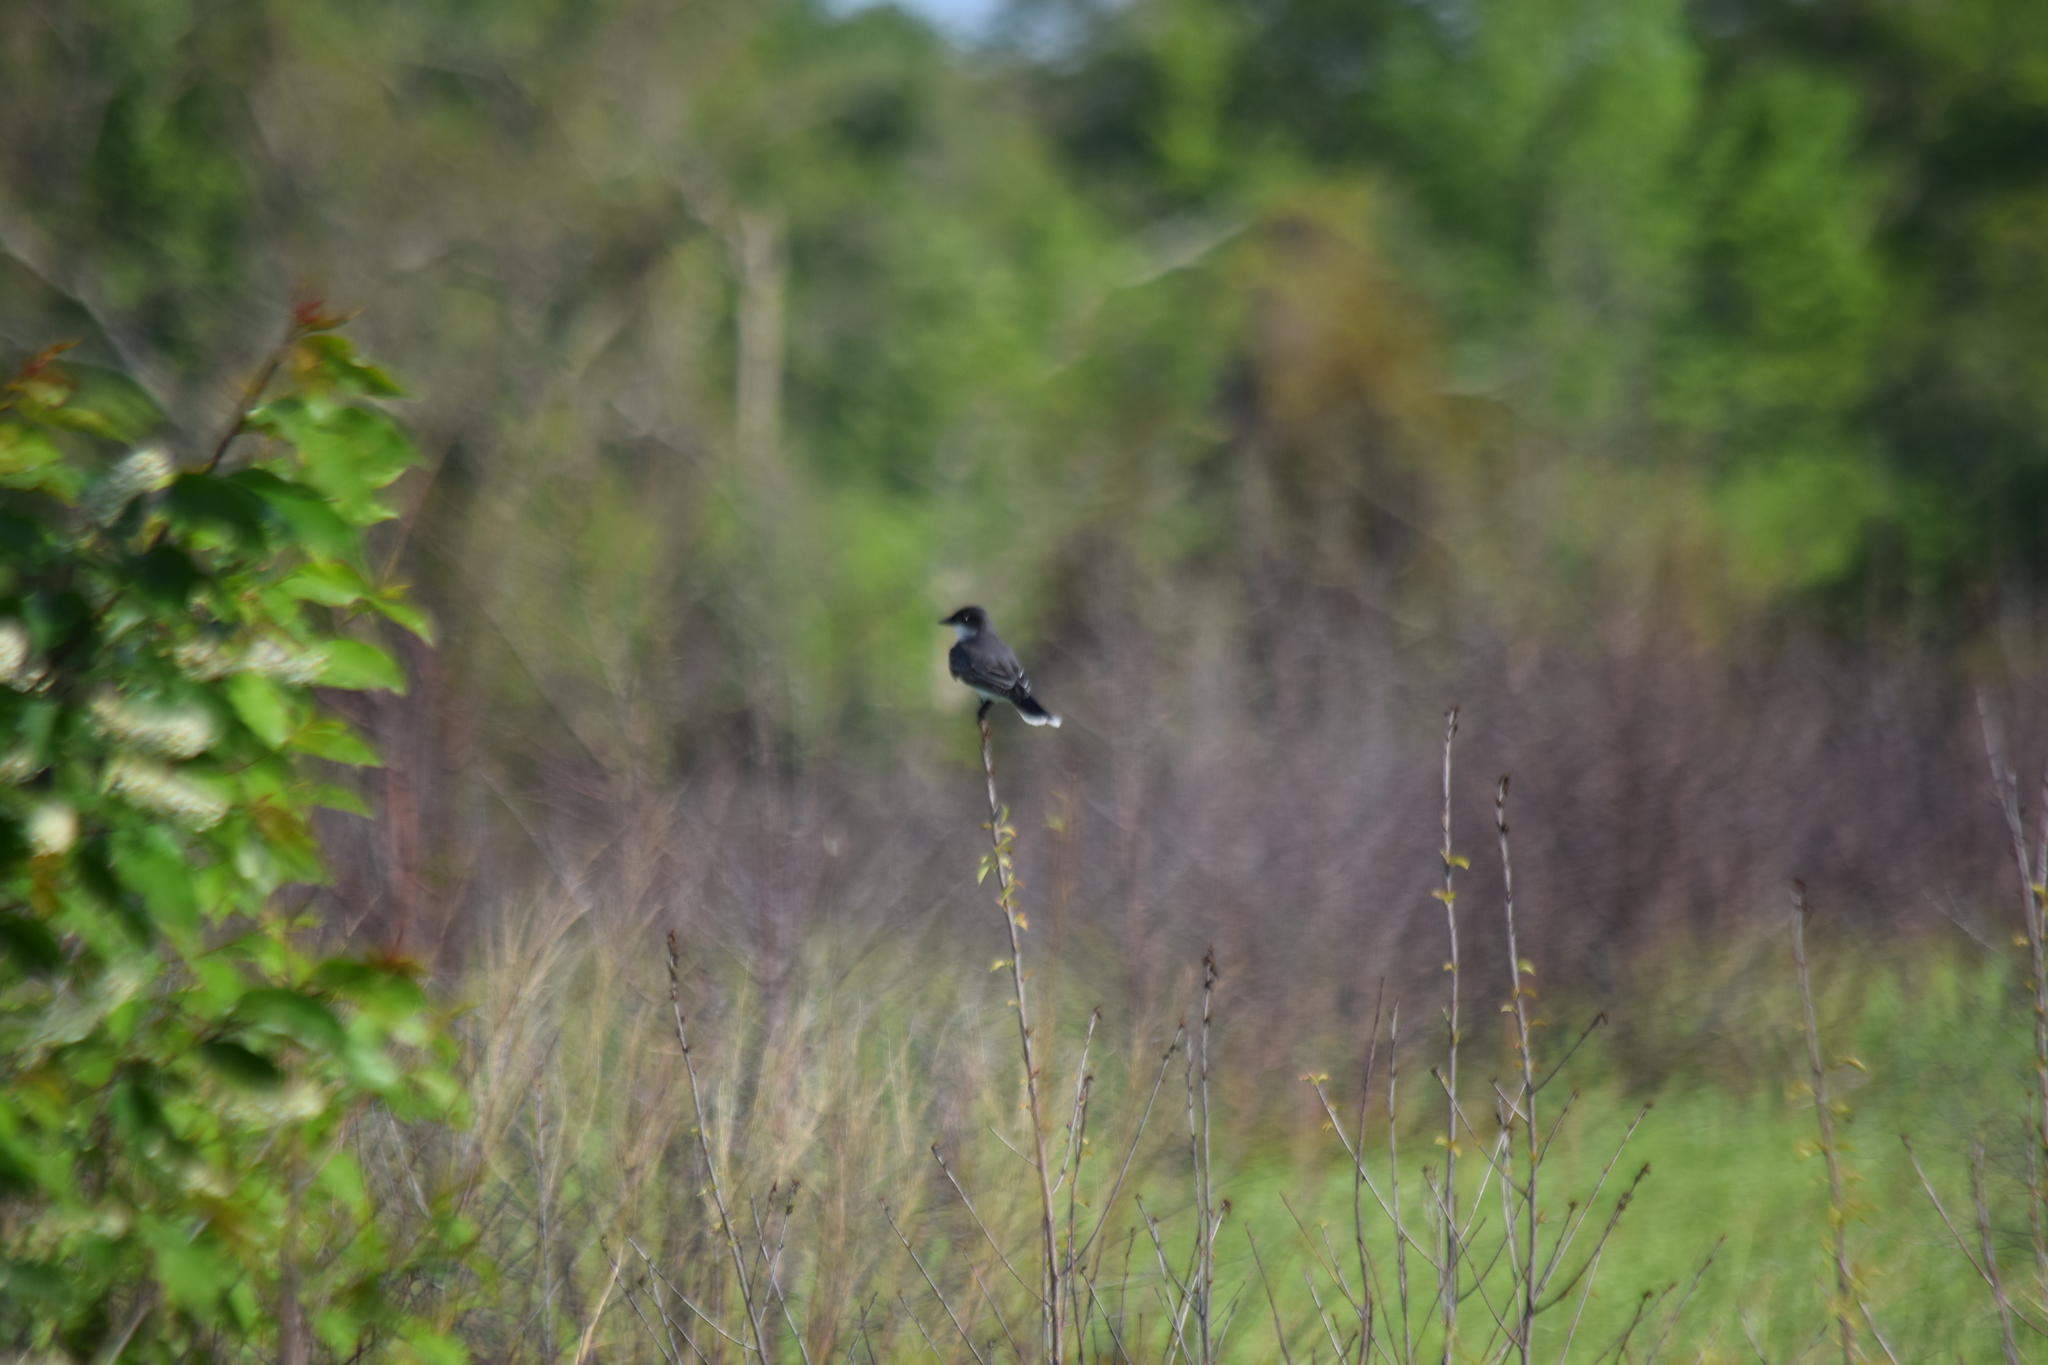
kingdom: Animalia
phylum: Chordata
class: Aves
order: Passeriformes
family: Tyrannidae
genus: Tyrannus
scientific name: Tyrannus tyrannus
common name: Eastern kingbird
